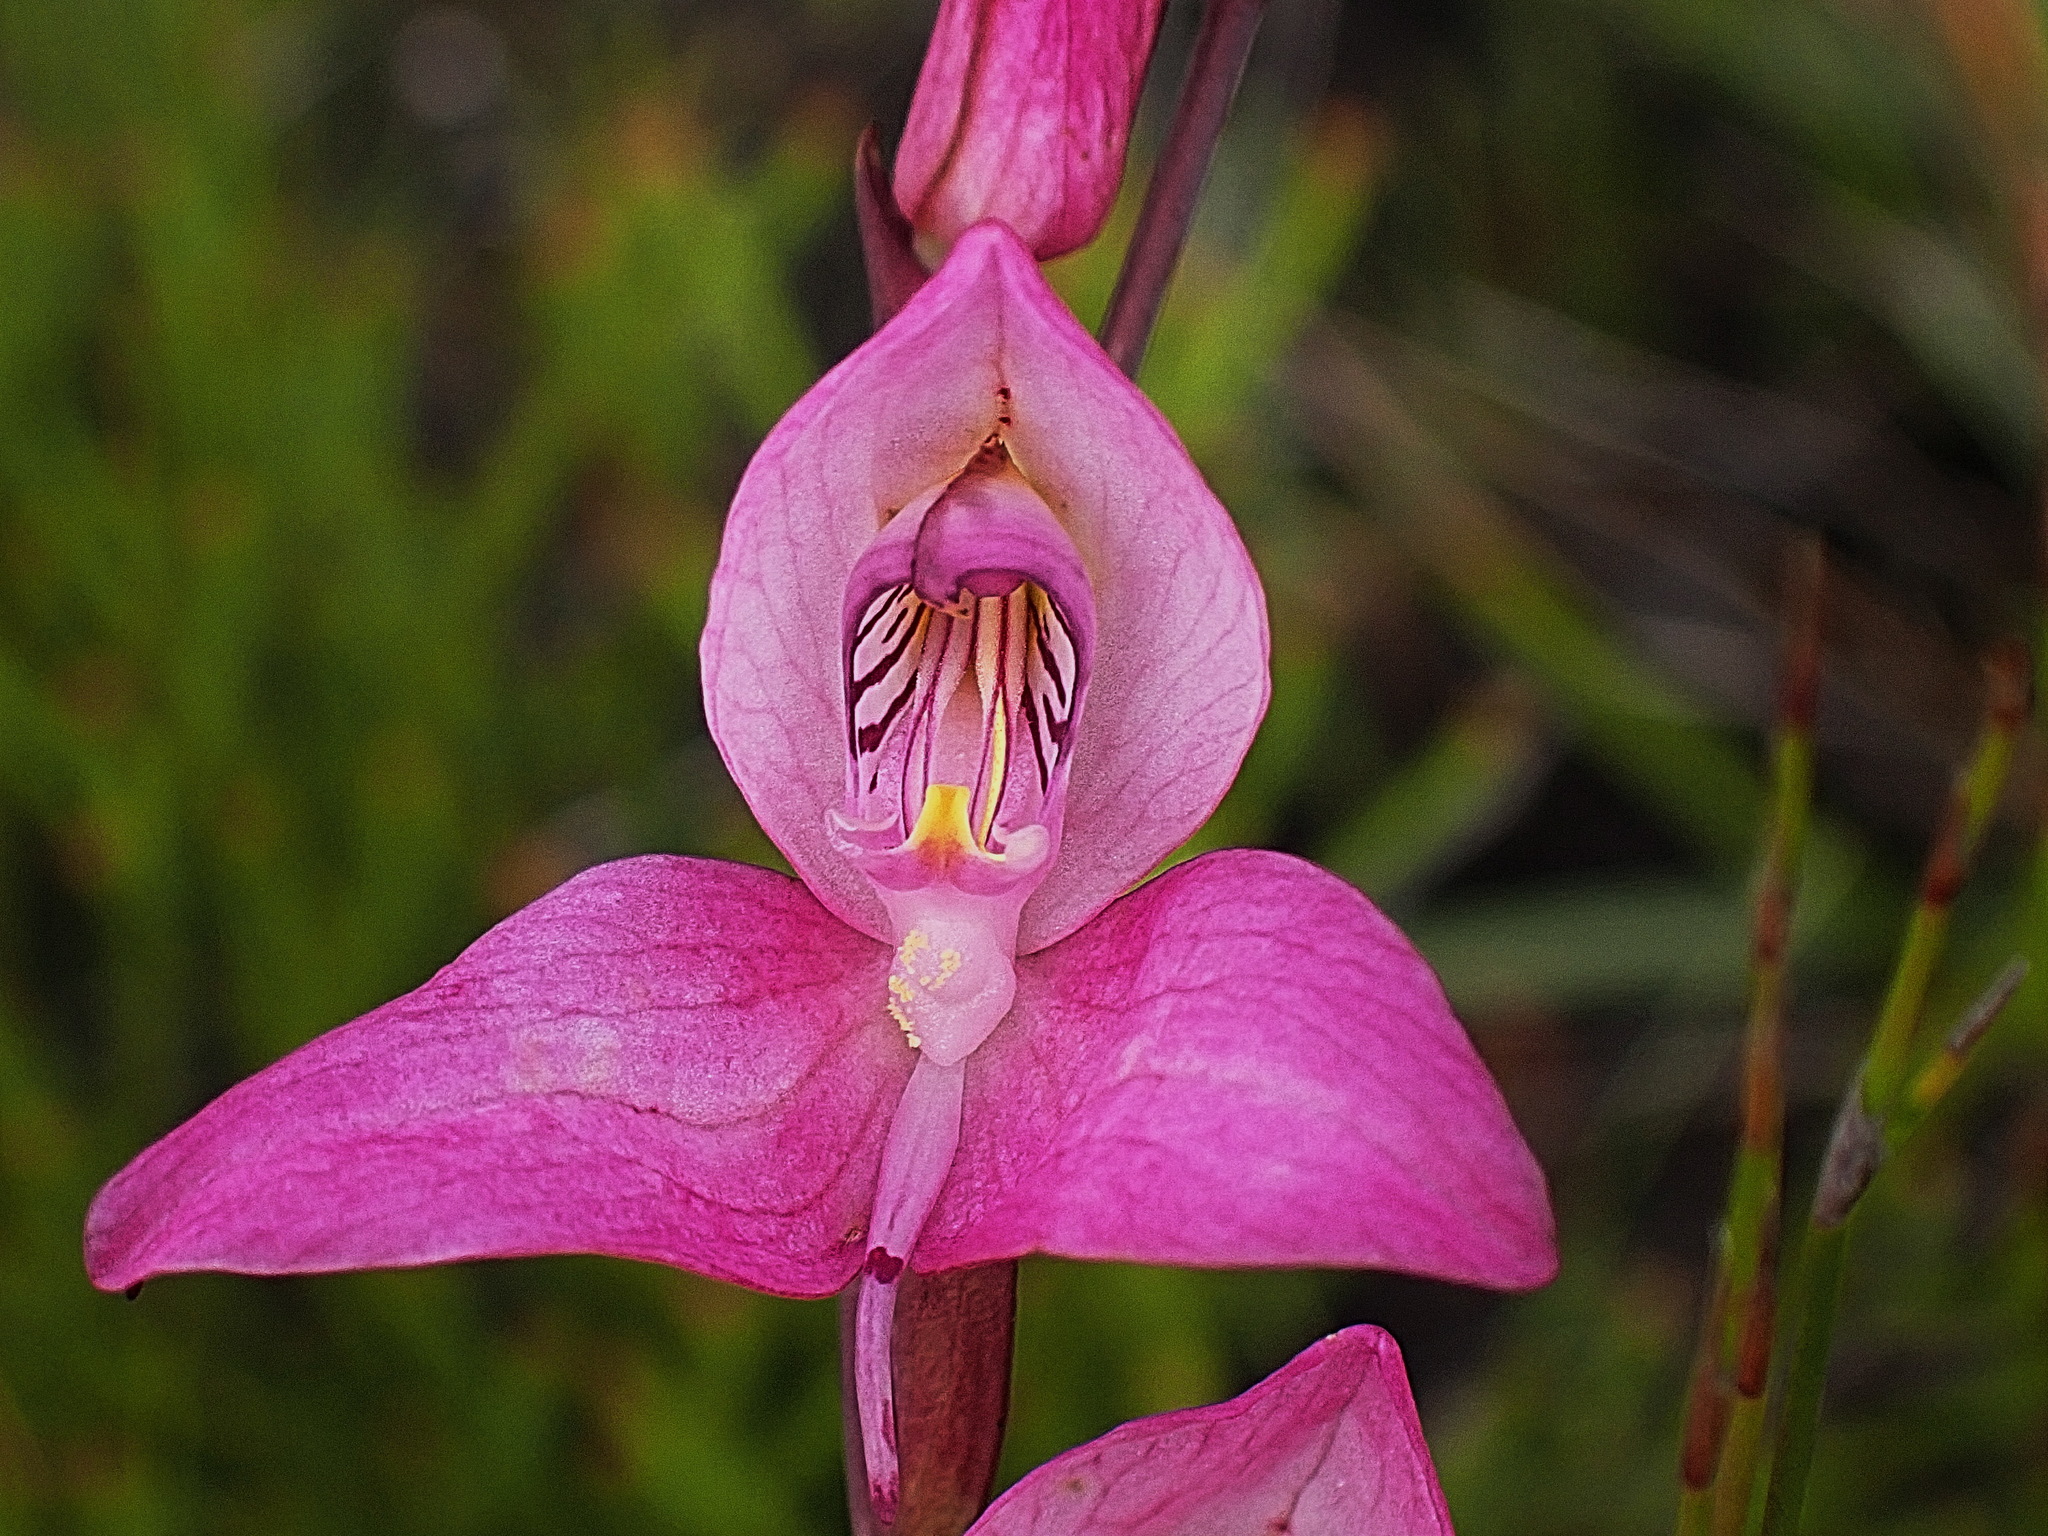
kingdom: Plantae
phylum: Tracheophyta
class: Liliopsida
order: Asparagales
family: Orchidaceae
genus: Disa
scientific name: Disa racemosa
